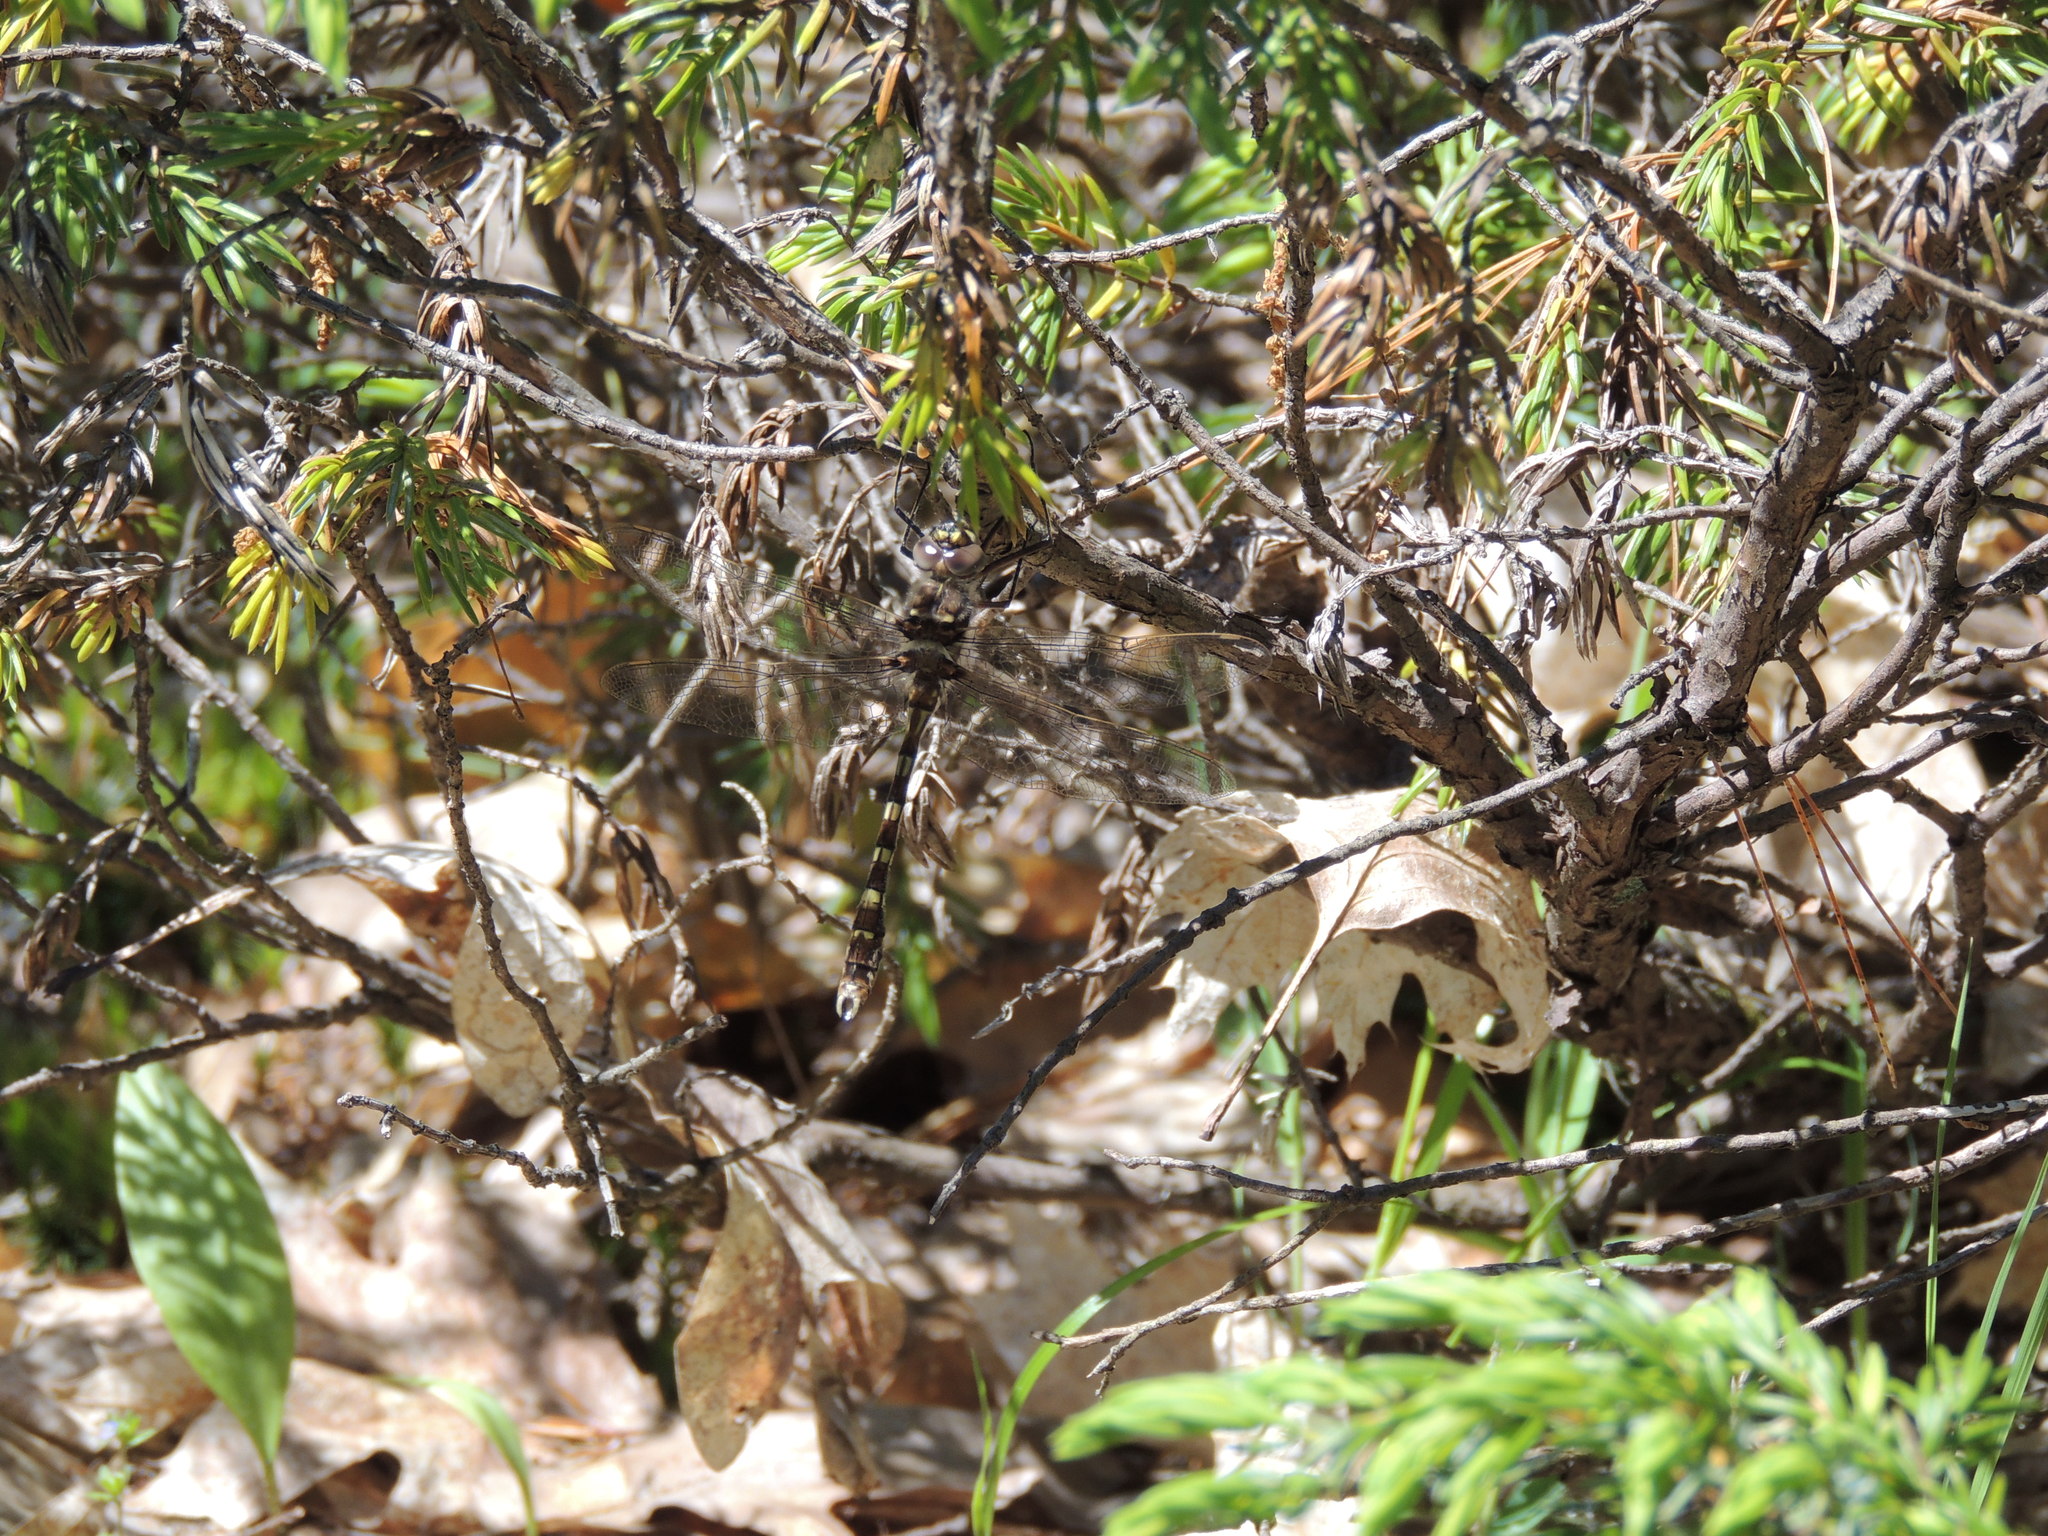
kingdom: Animalia
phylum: Arthropoda
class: Insecta
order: Odonata
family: Macromiidae
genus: Didymops
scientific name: Didymops transversa
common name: Stream cruiser
